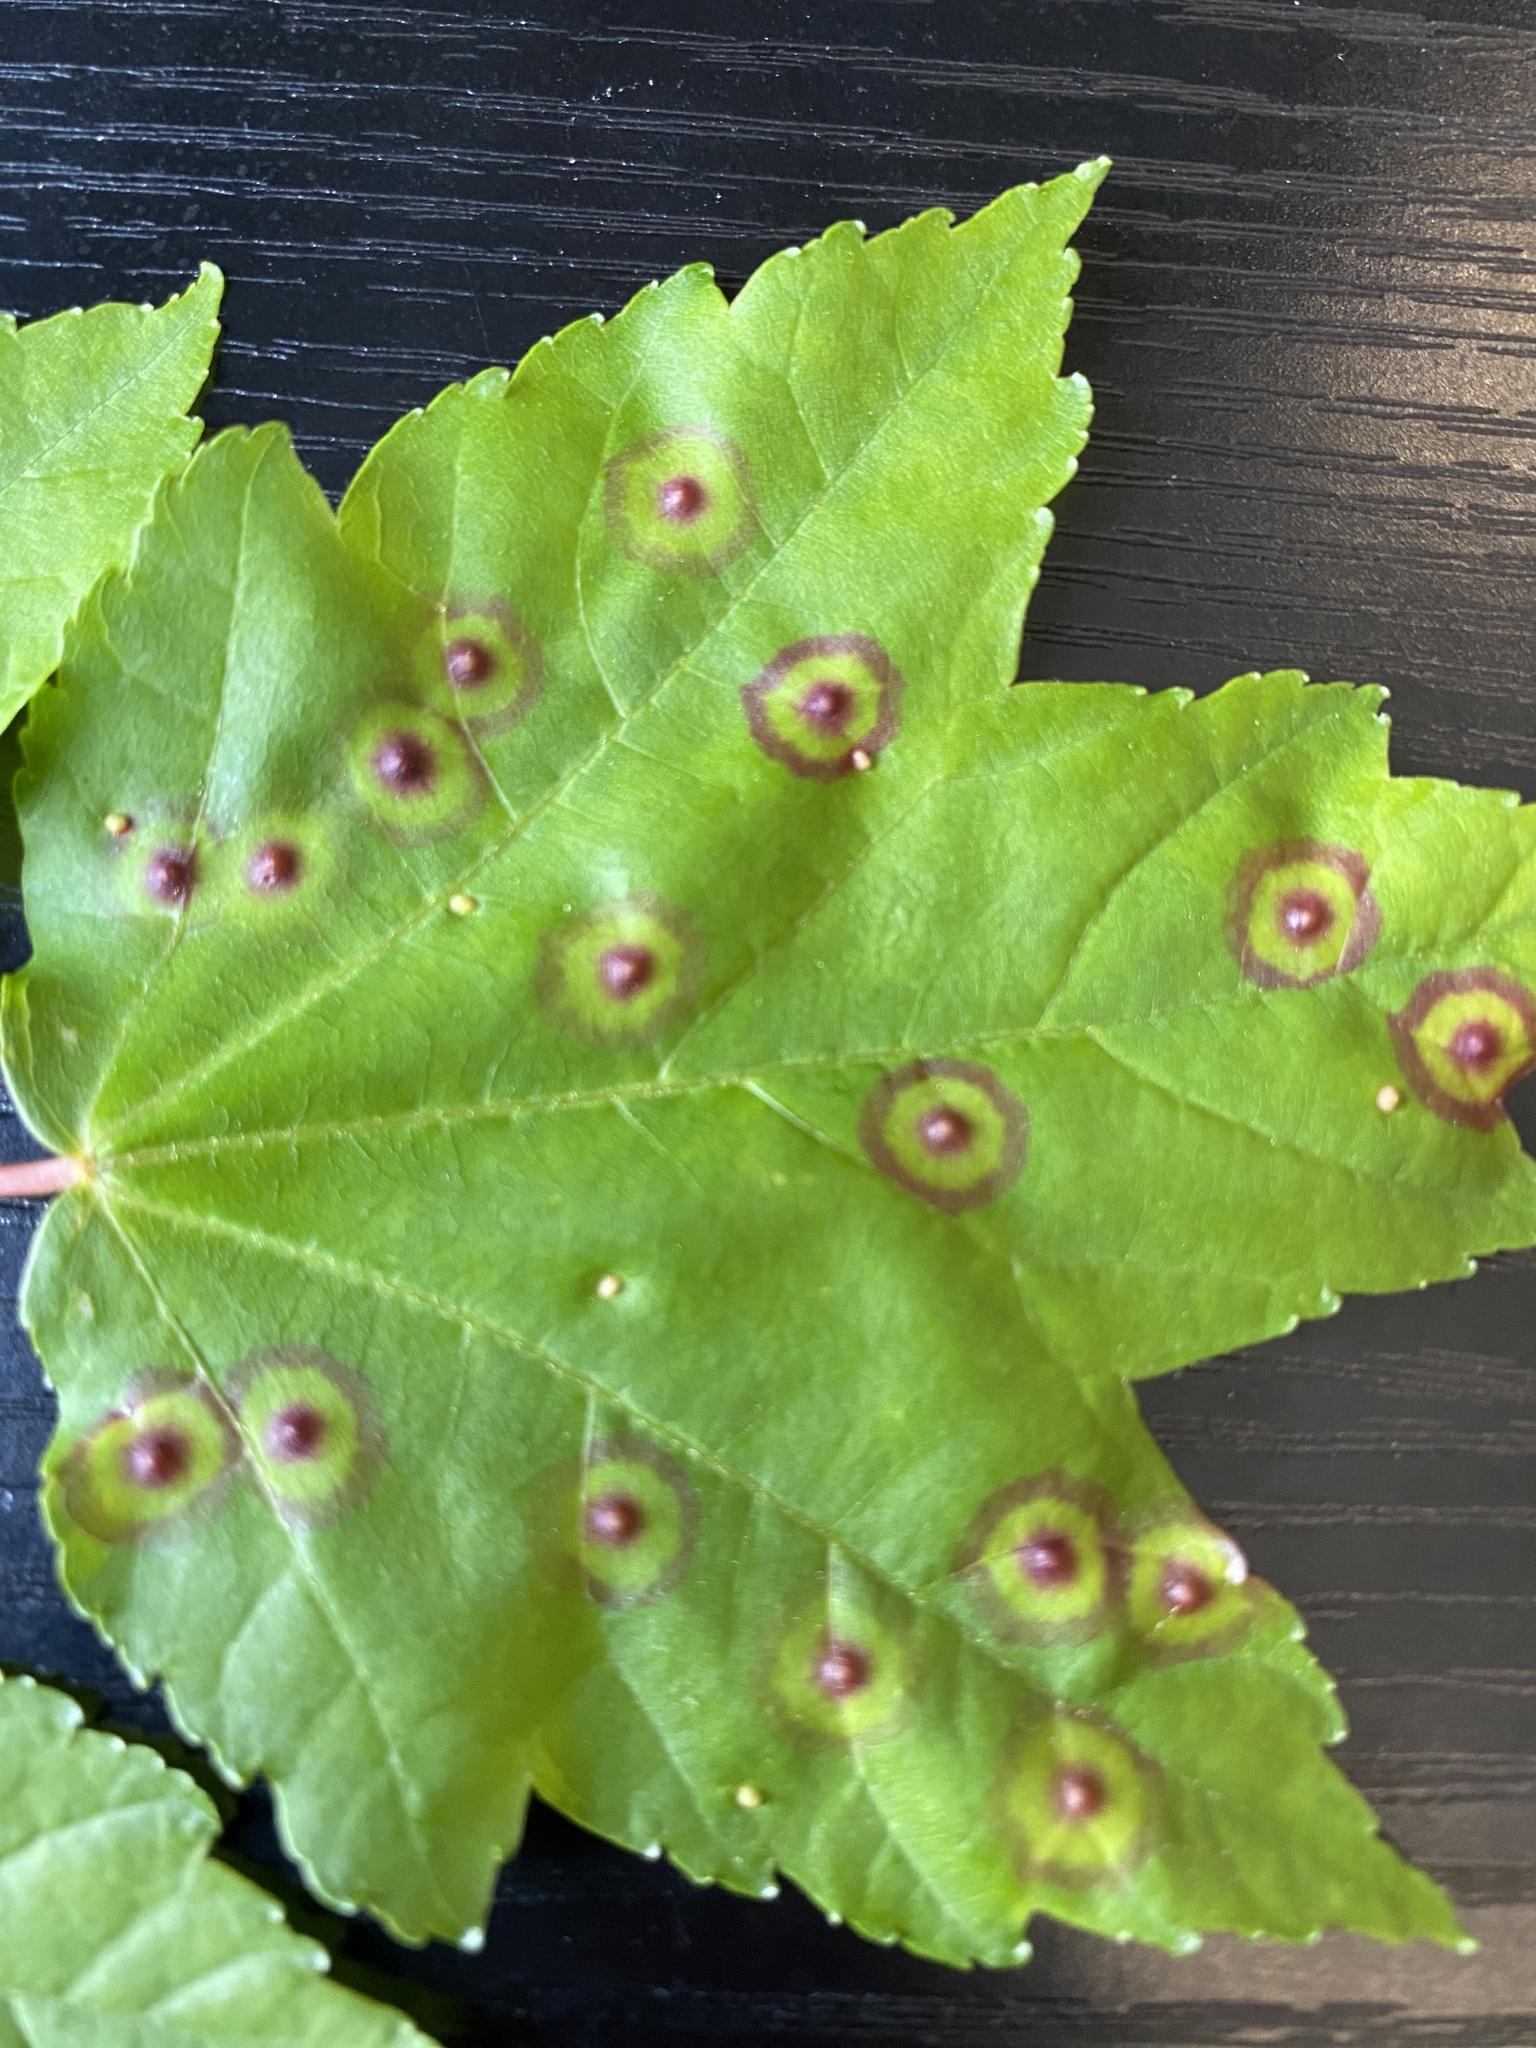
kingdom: Animalia
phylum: Arthropoda
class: Insecta
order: Diptera
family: Cecidomyiidae
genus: Acericecis
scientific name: Acericecis ocellaris
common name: Ocellate gall midge
